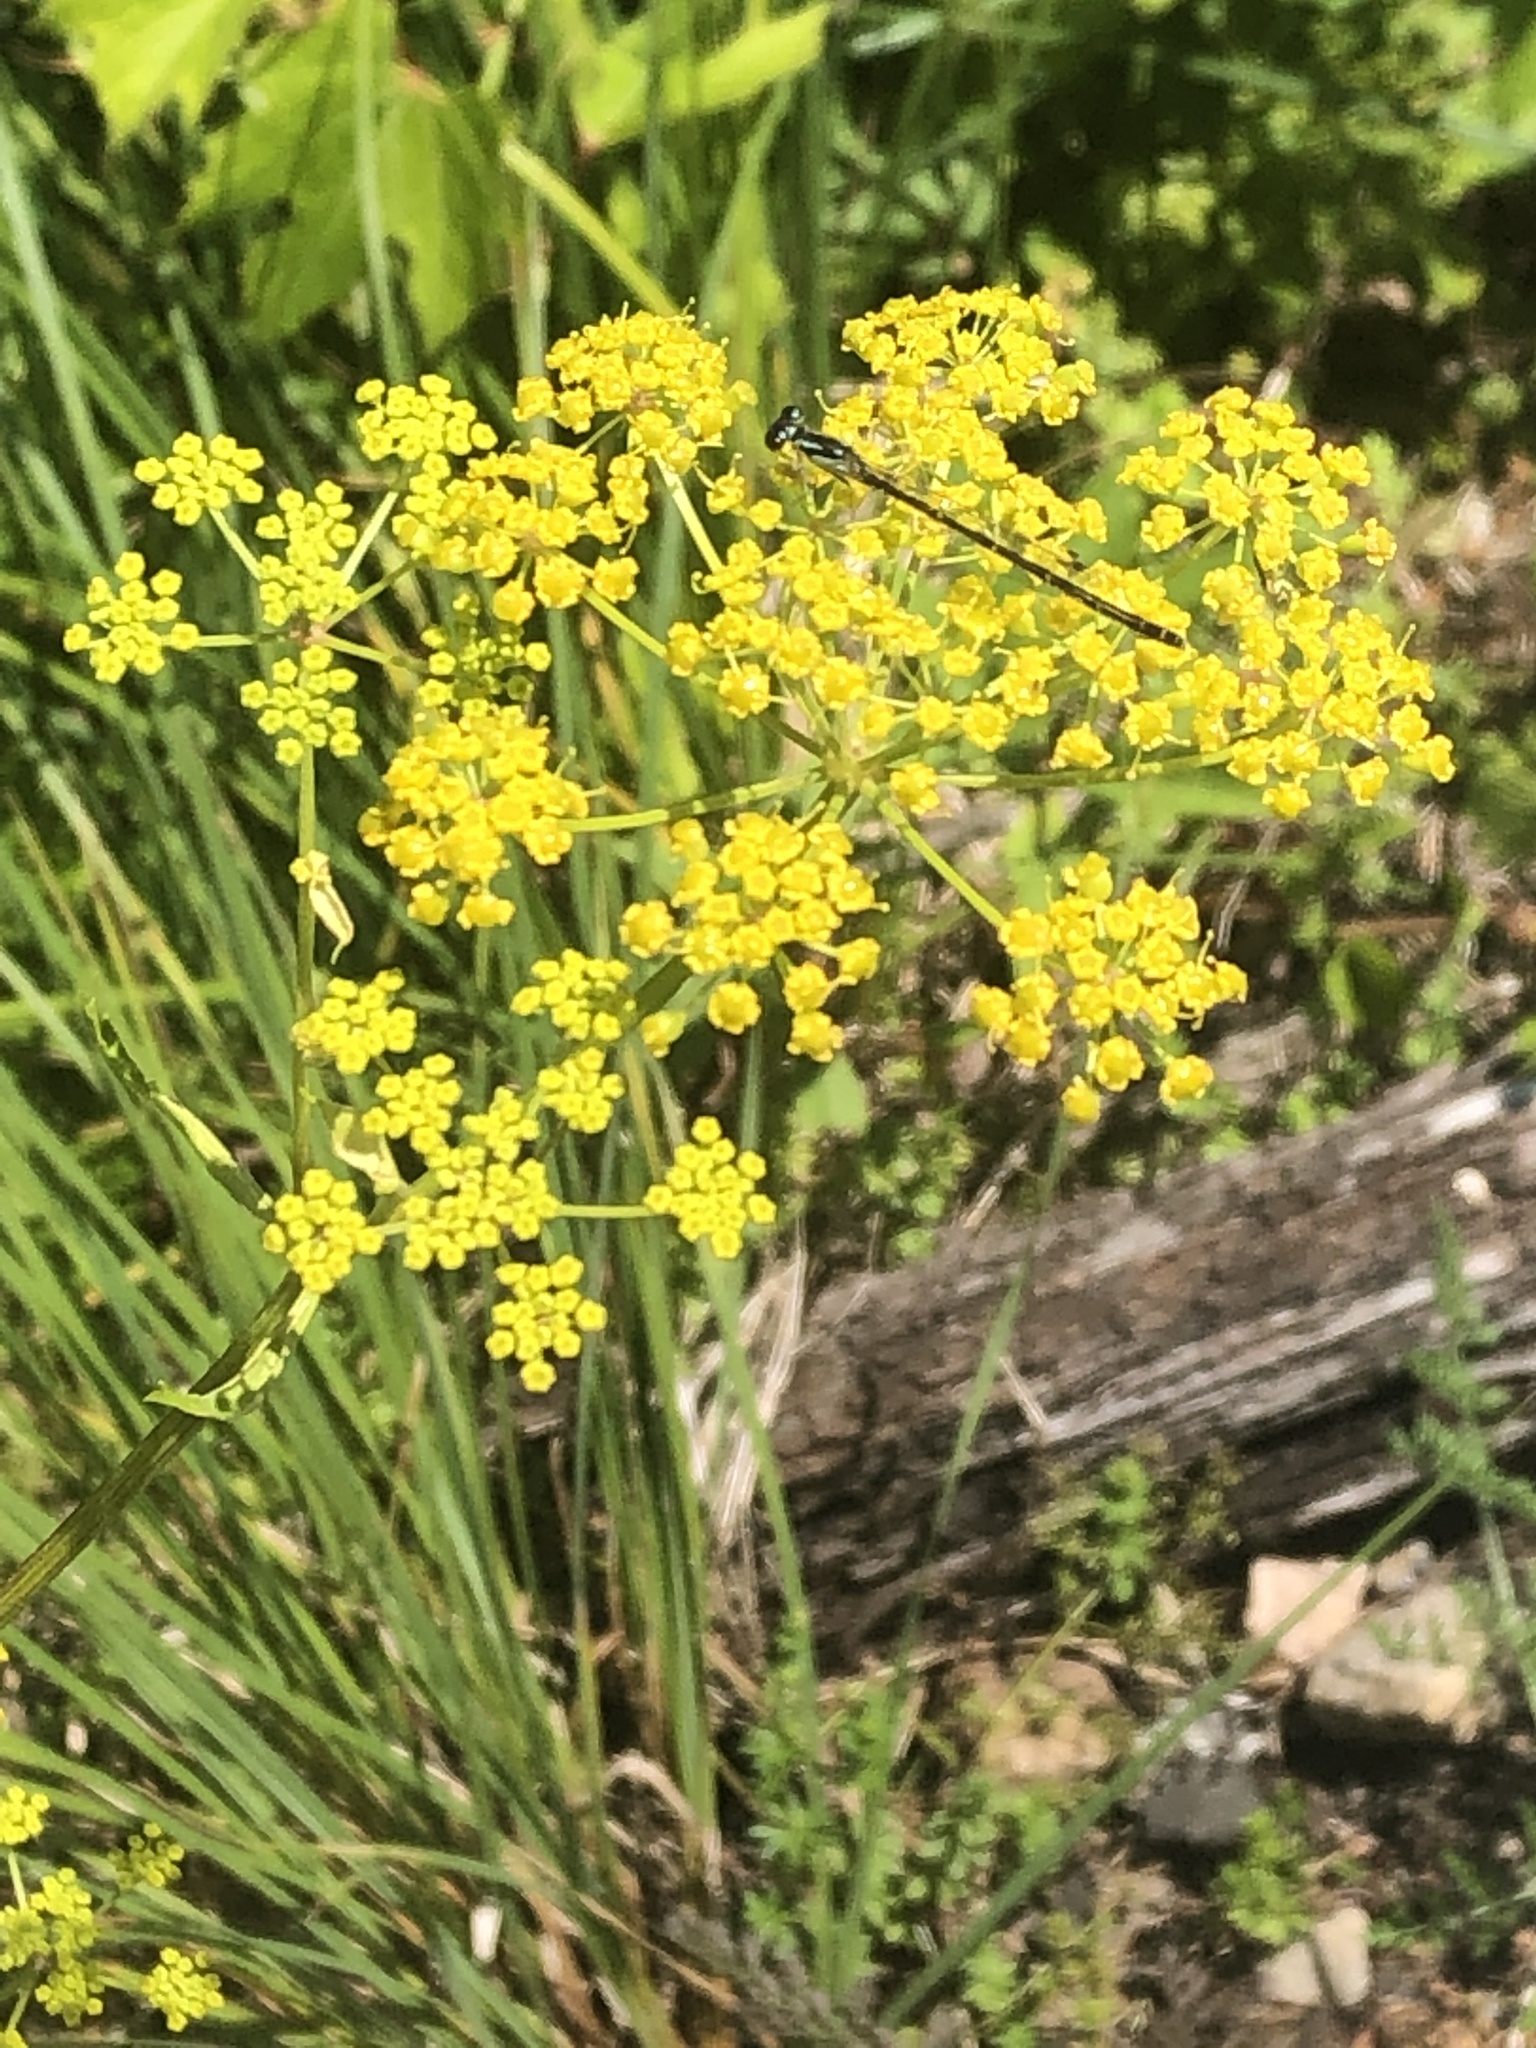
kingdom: Animalia
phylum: Arthropoda
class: Insecta
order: Odonata
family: Coenagrionidae
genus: Ischnura
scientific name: Ischnura posita
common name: Fragile forktail
